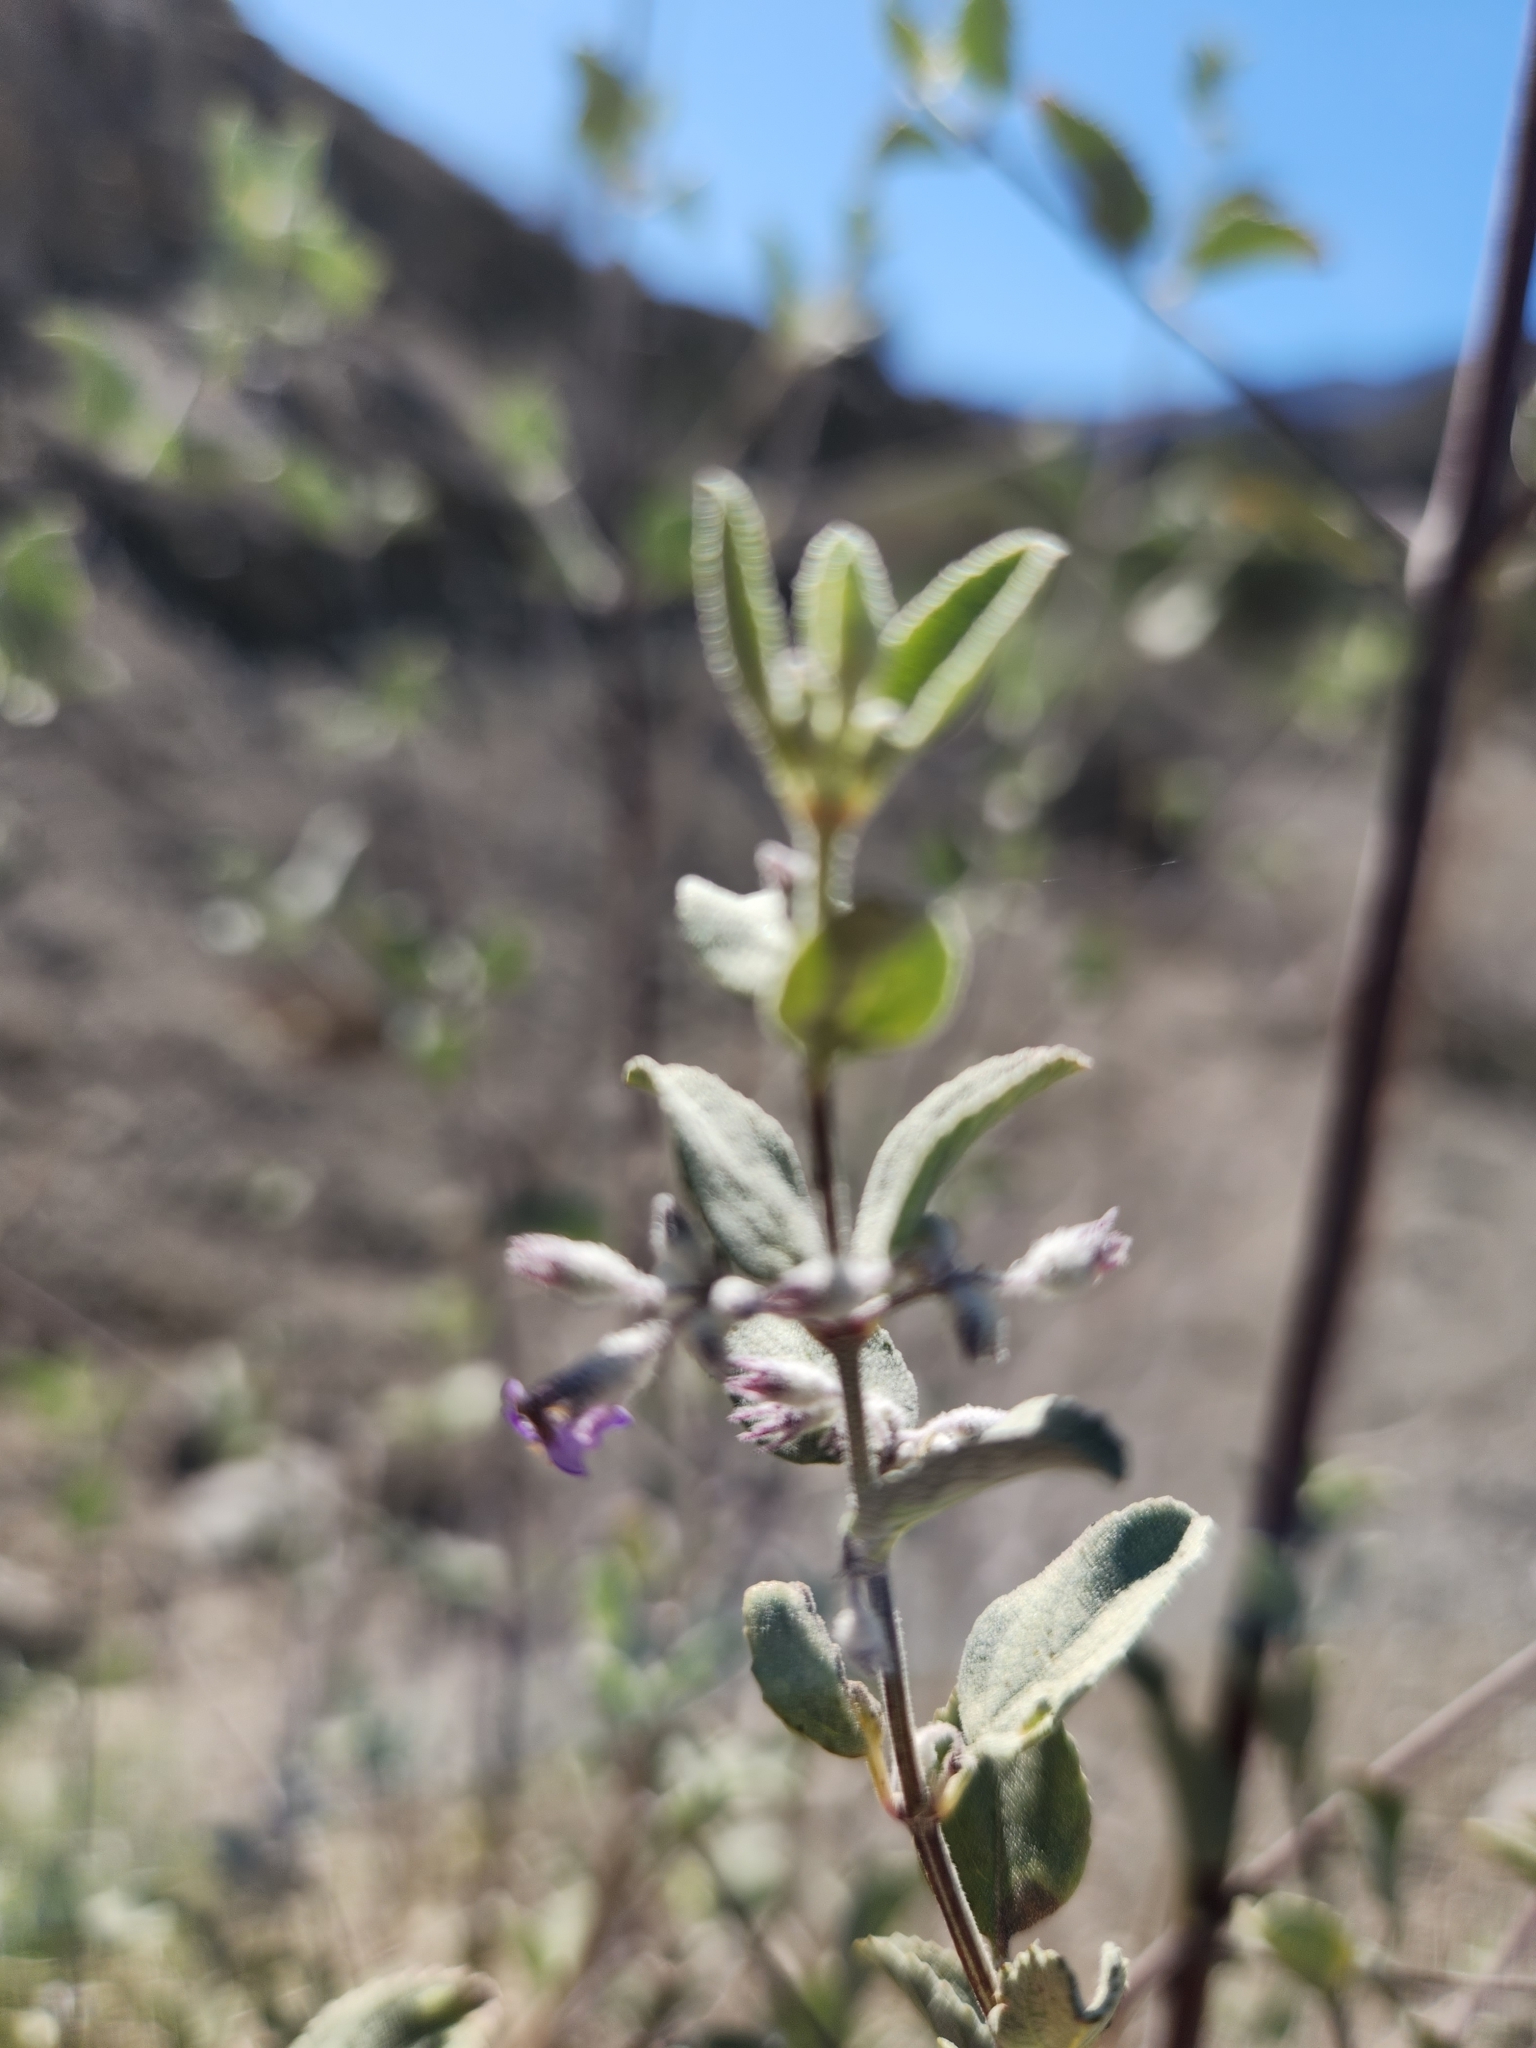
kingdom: Plantae
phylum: Tracheophyta
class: Magnoliopsida
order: Lamiales
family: Lamiaceae
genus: Condea
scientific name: Condea emoryi
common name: Chia
